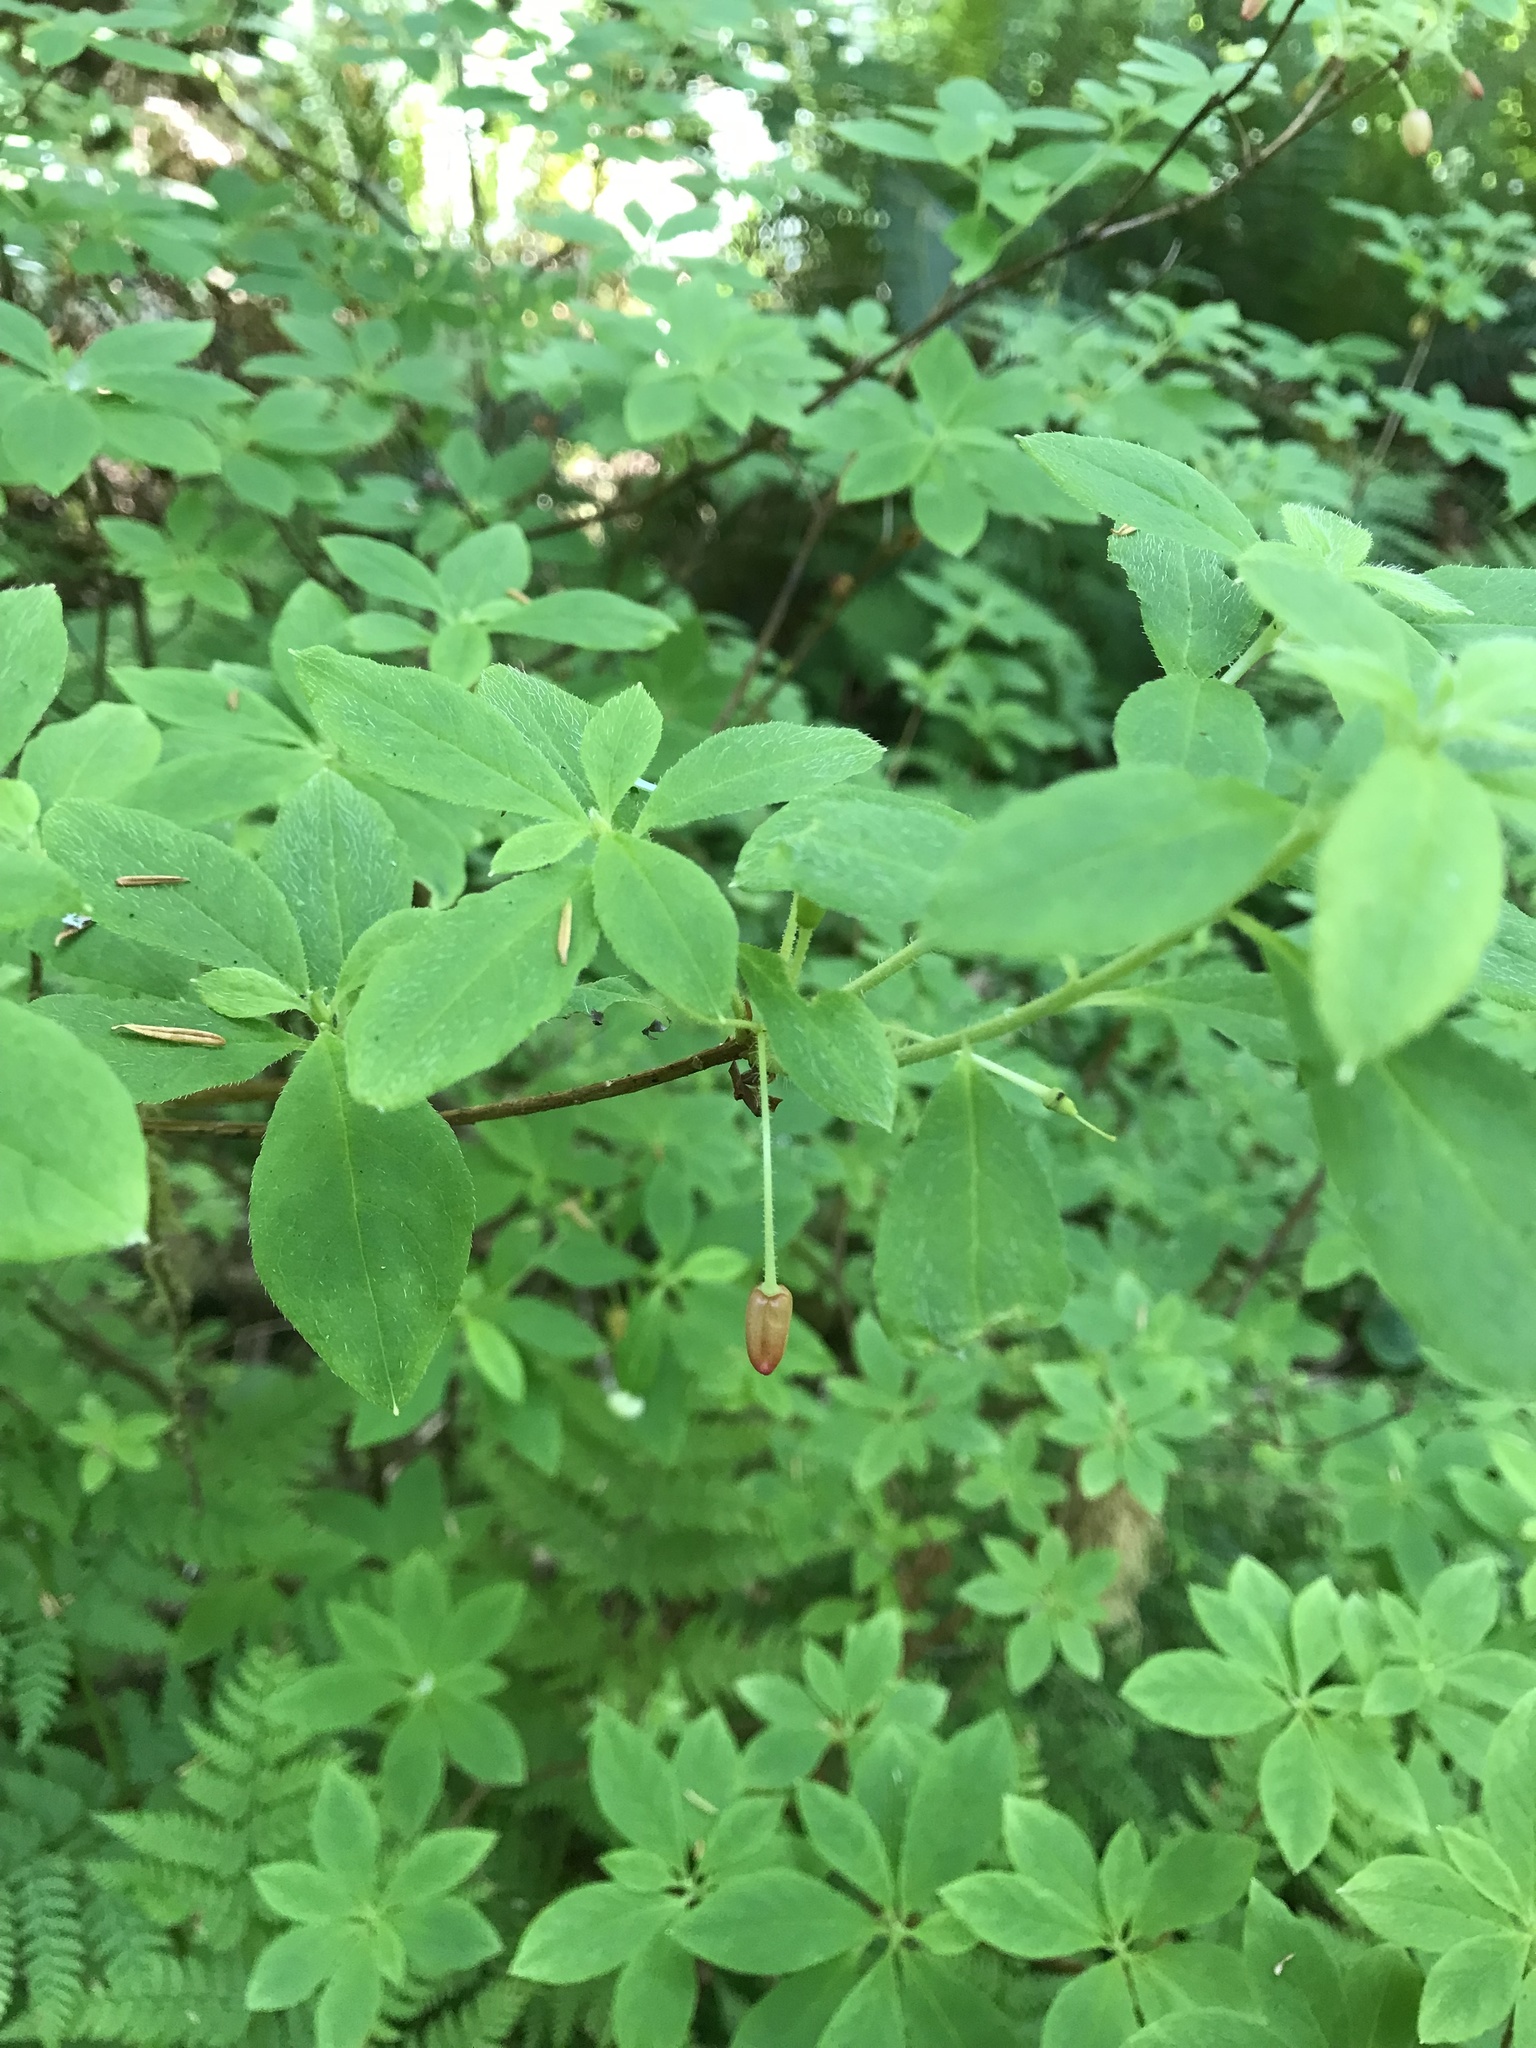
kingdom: Plantae
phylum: Tracheophyta
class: Magnoliopsida
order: Ericales
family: Ericaceae
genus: Rhododendron
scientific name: Rhododendron menziesii
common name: Pacific menziesia
